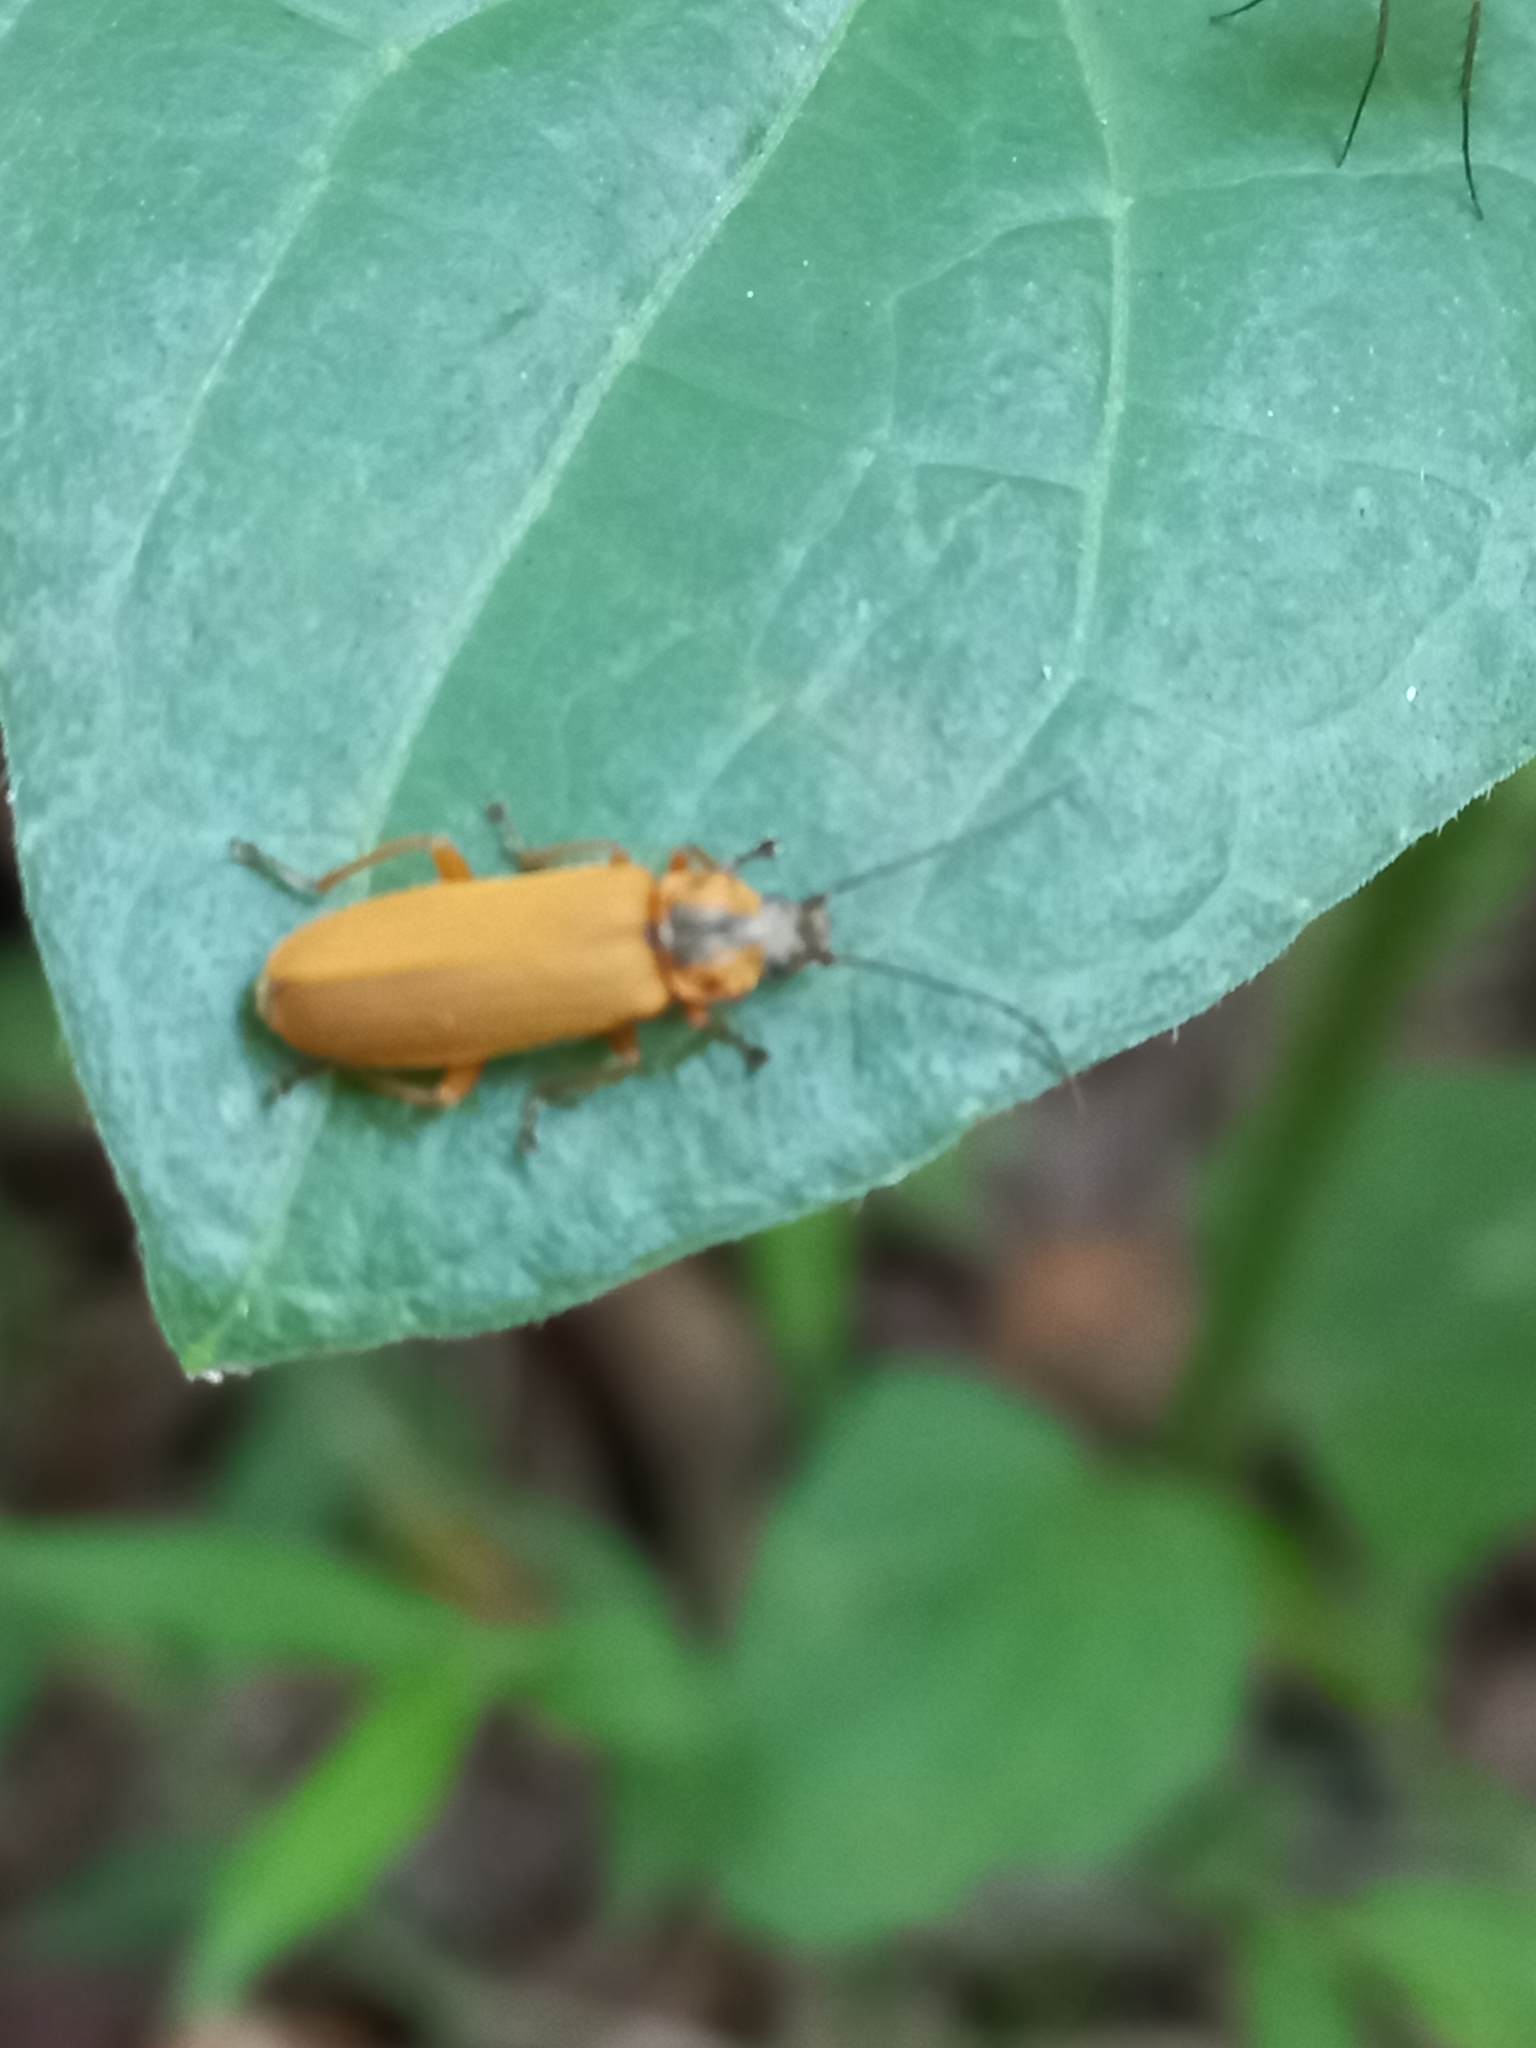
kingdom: Animalia
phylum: Arthropoda
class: Insecta
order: Coleoptera
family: Cantharidae
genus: Afronycha
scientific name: Afronycha
